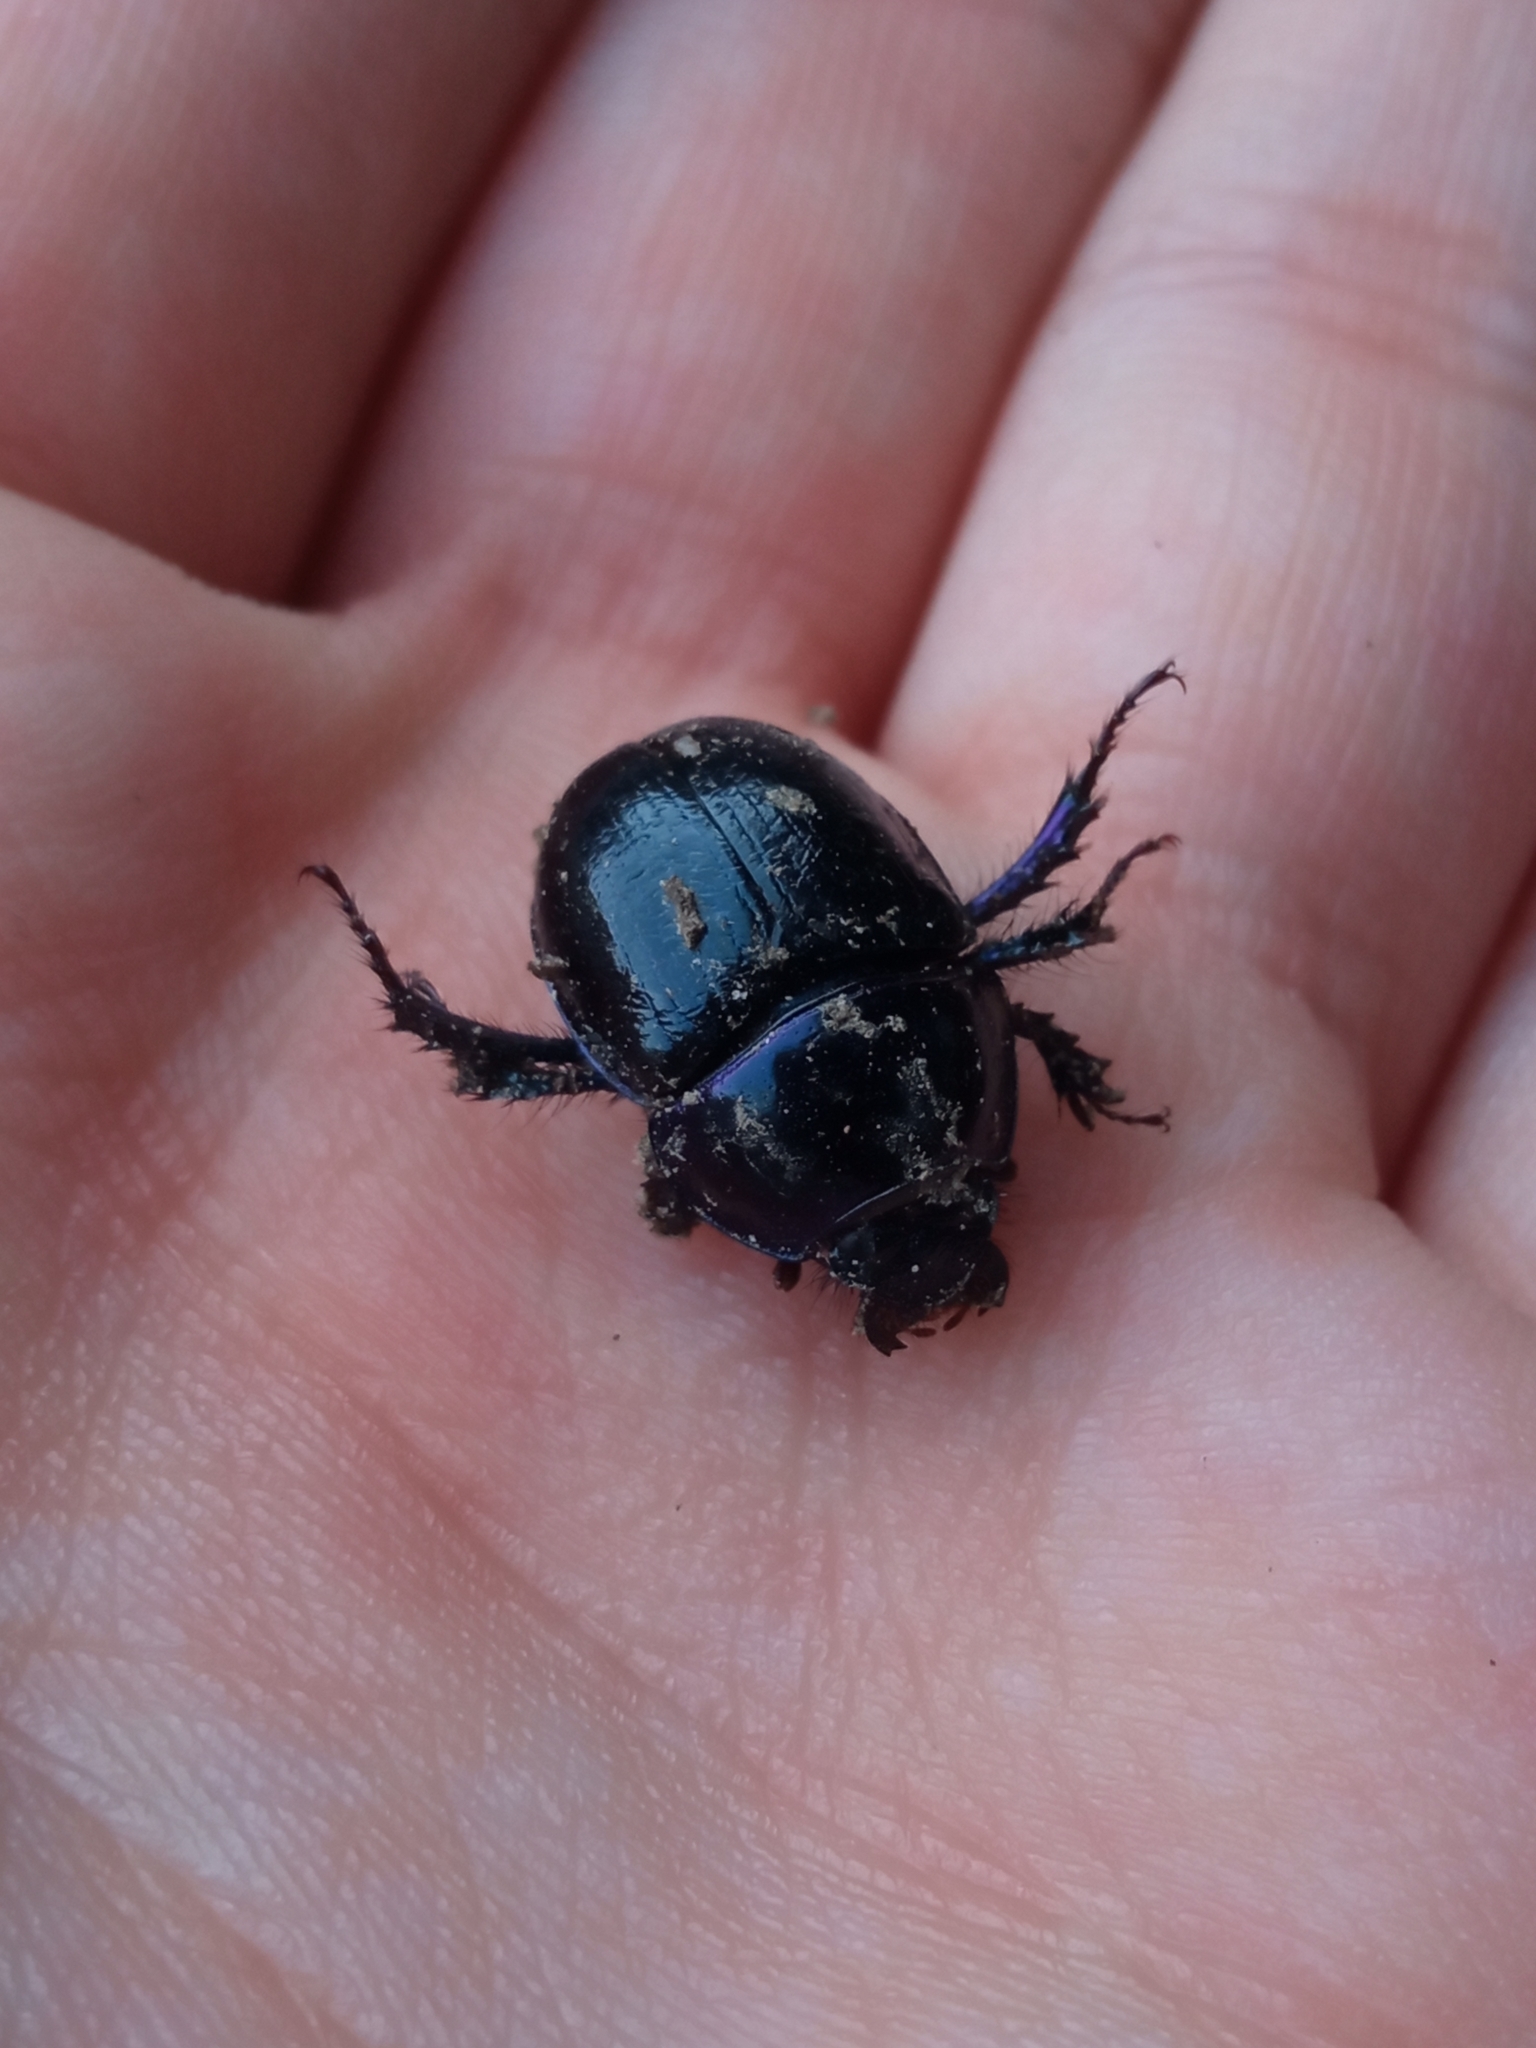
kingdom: Animalia
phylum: Arthropoda
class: Insecta
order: Coleoptera
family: Geotrupidae
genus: Anoplotrupes
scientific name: Anoplotrupes stercorosus
